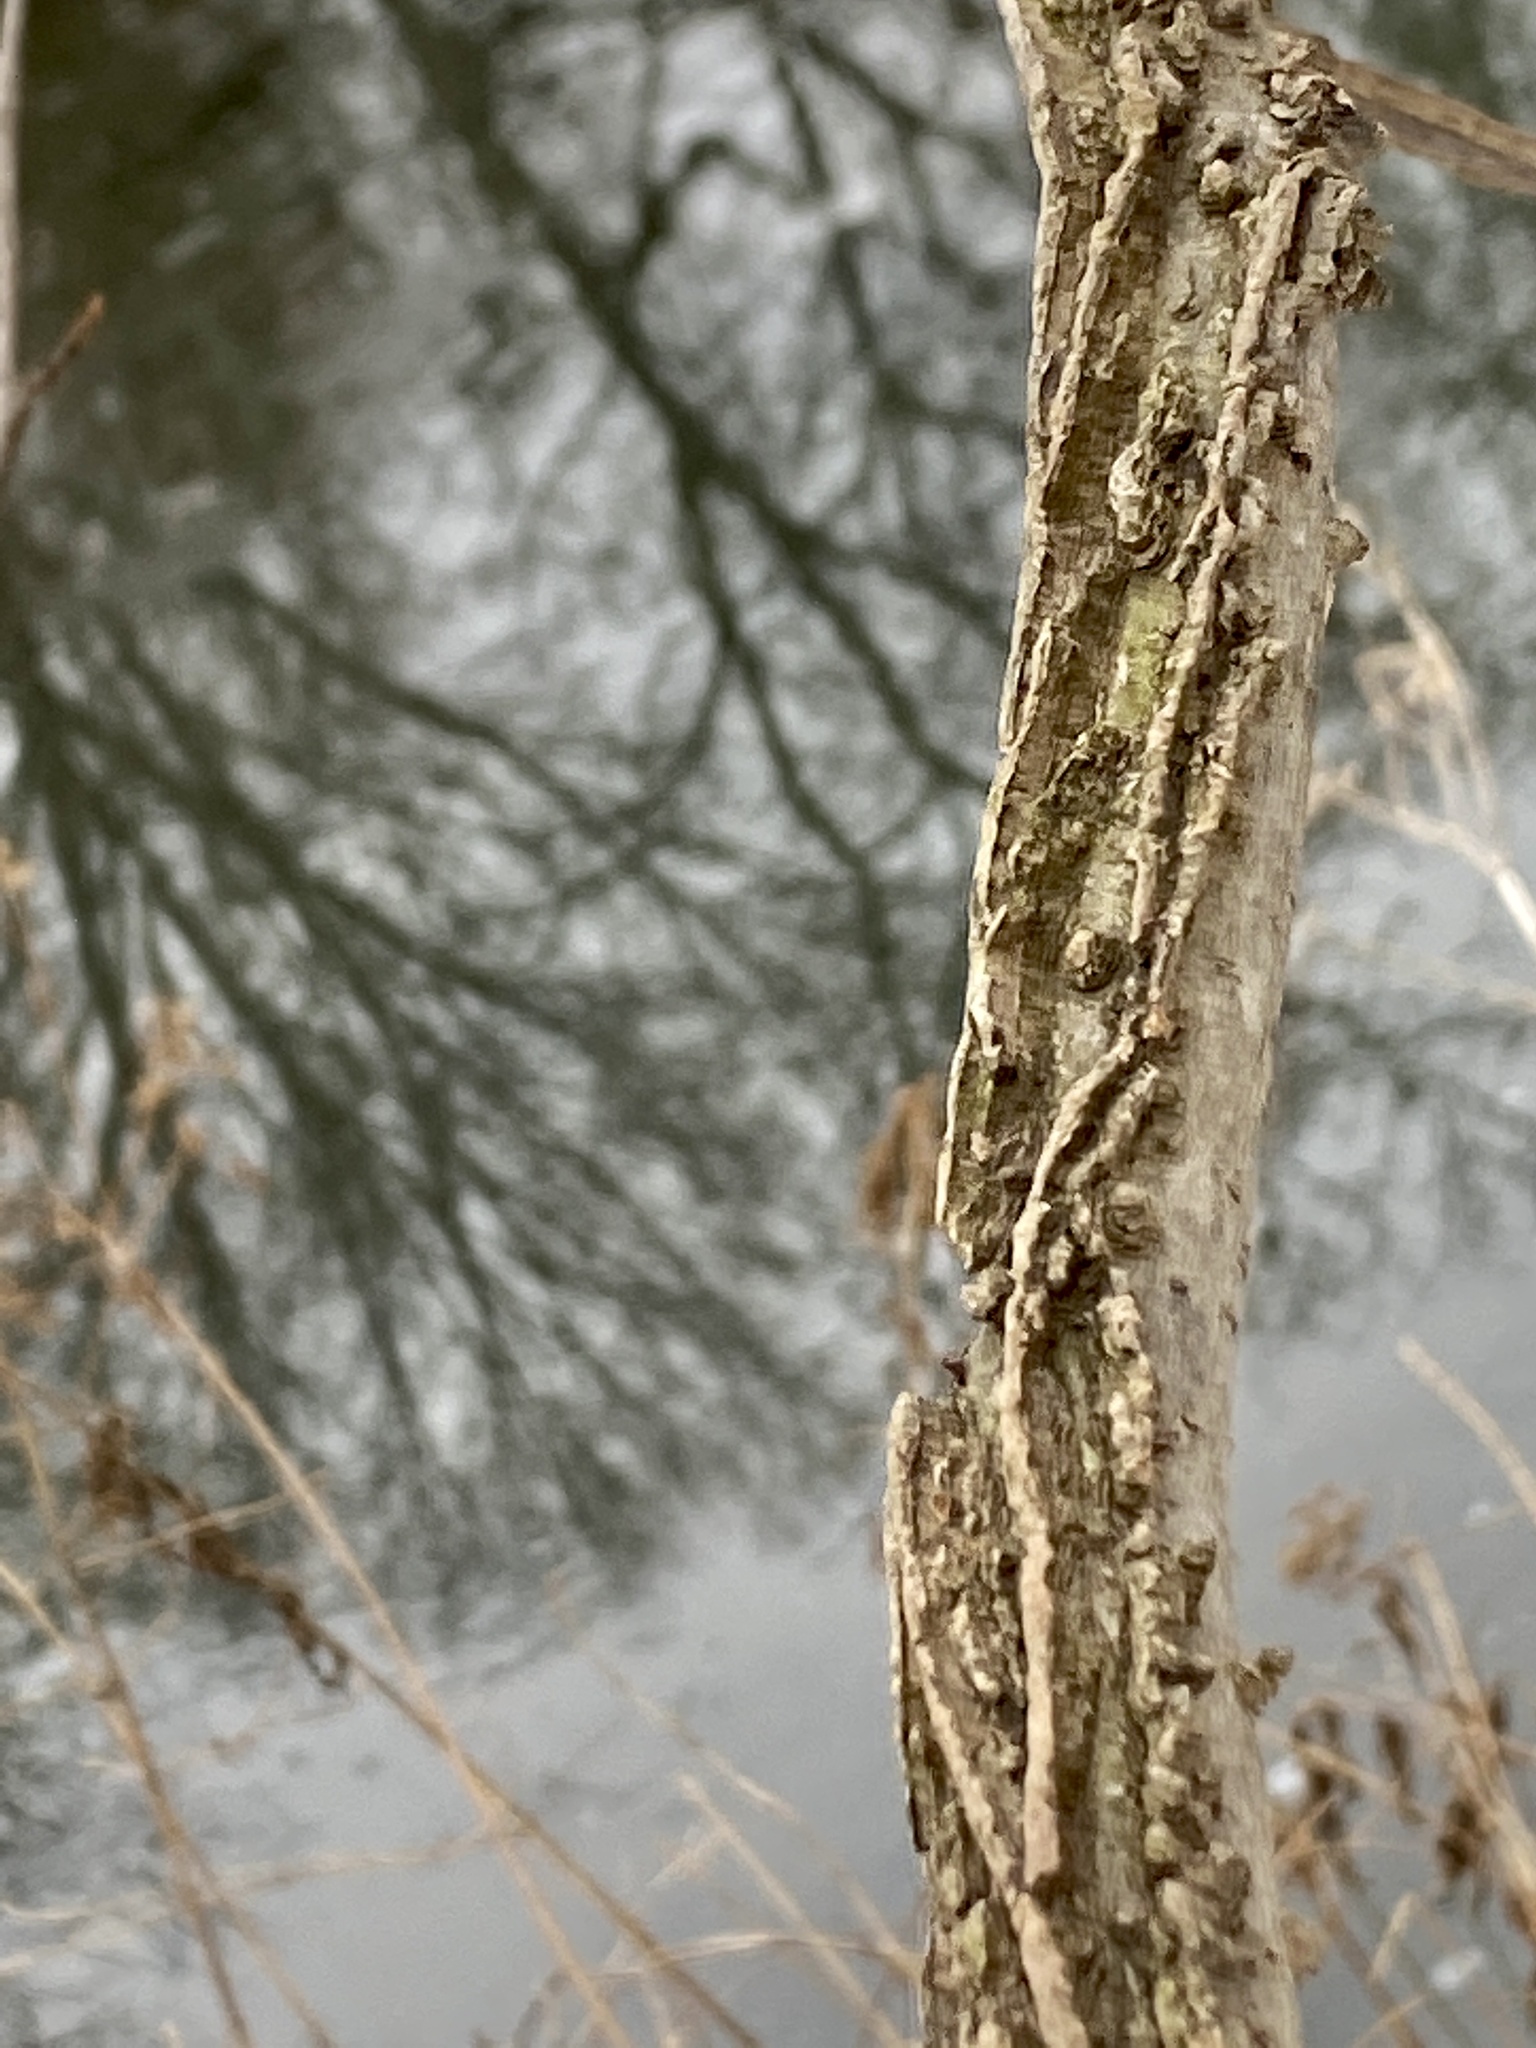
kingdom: Plantae
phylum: Tracheophyta
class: Magnoliopsida
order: Saxifragales
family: Altingiaceae
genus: Liquidambar
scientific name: Liquidambar styraciflua
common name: Sweet gum
